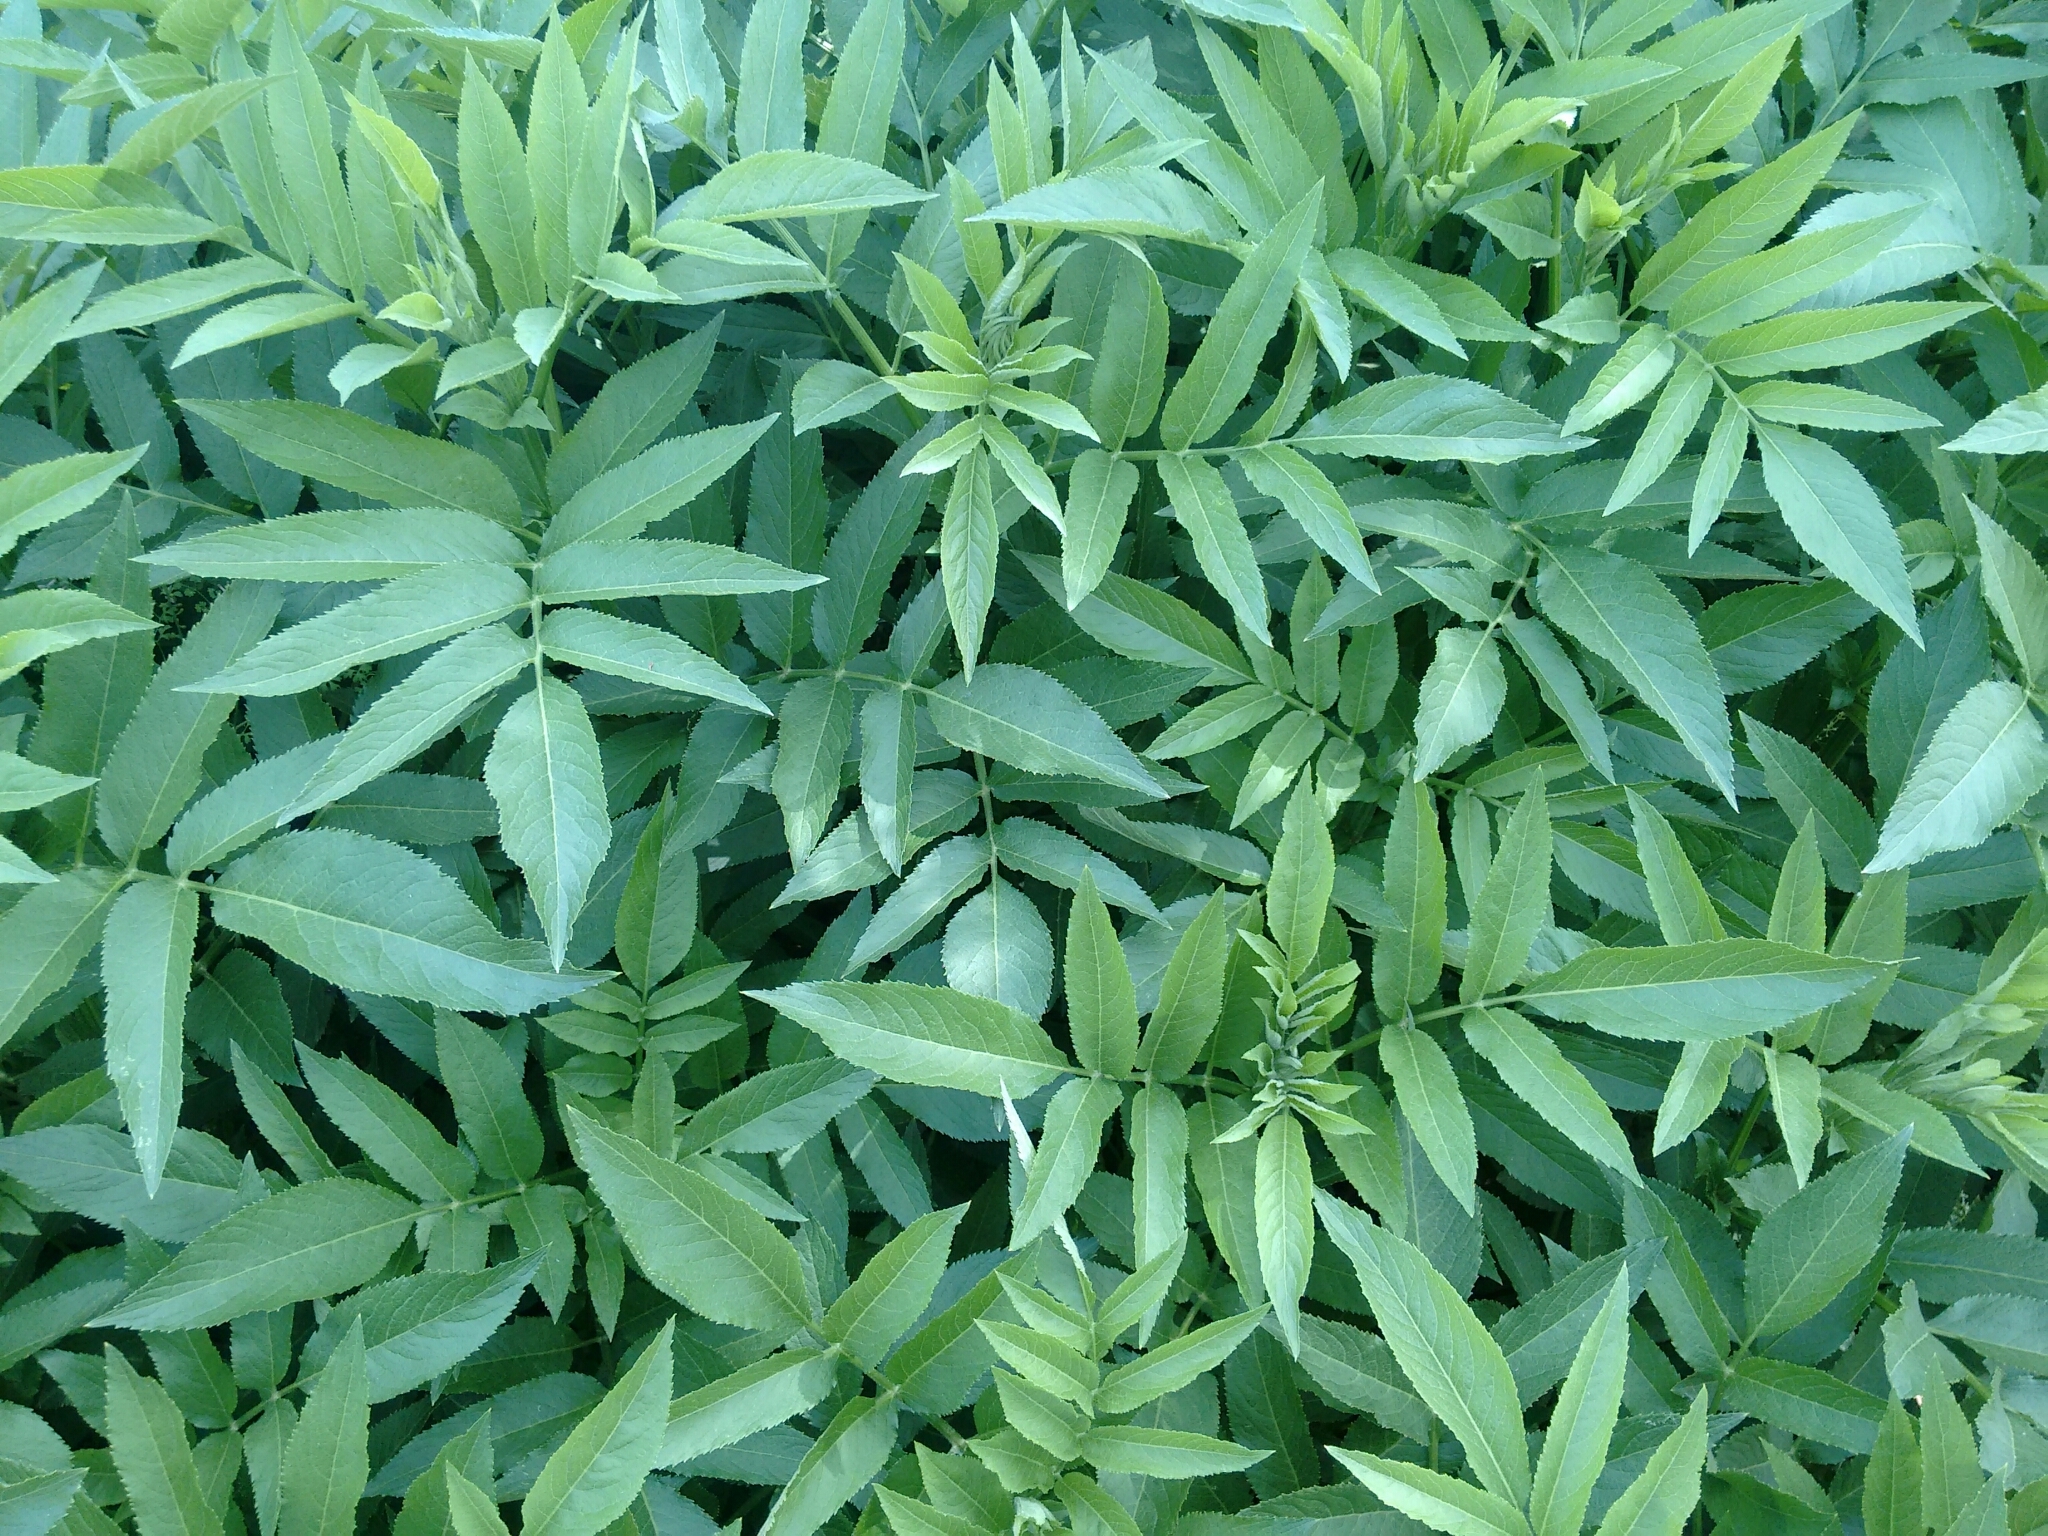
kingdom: Plantae
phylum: Tracheophyta
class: Magnoliopsida
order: Dipsacales
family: Viburnaceae
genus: Sambucus
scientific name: Sambucus ebulus
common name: Dwarf elder
